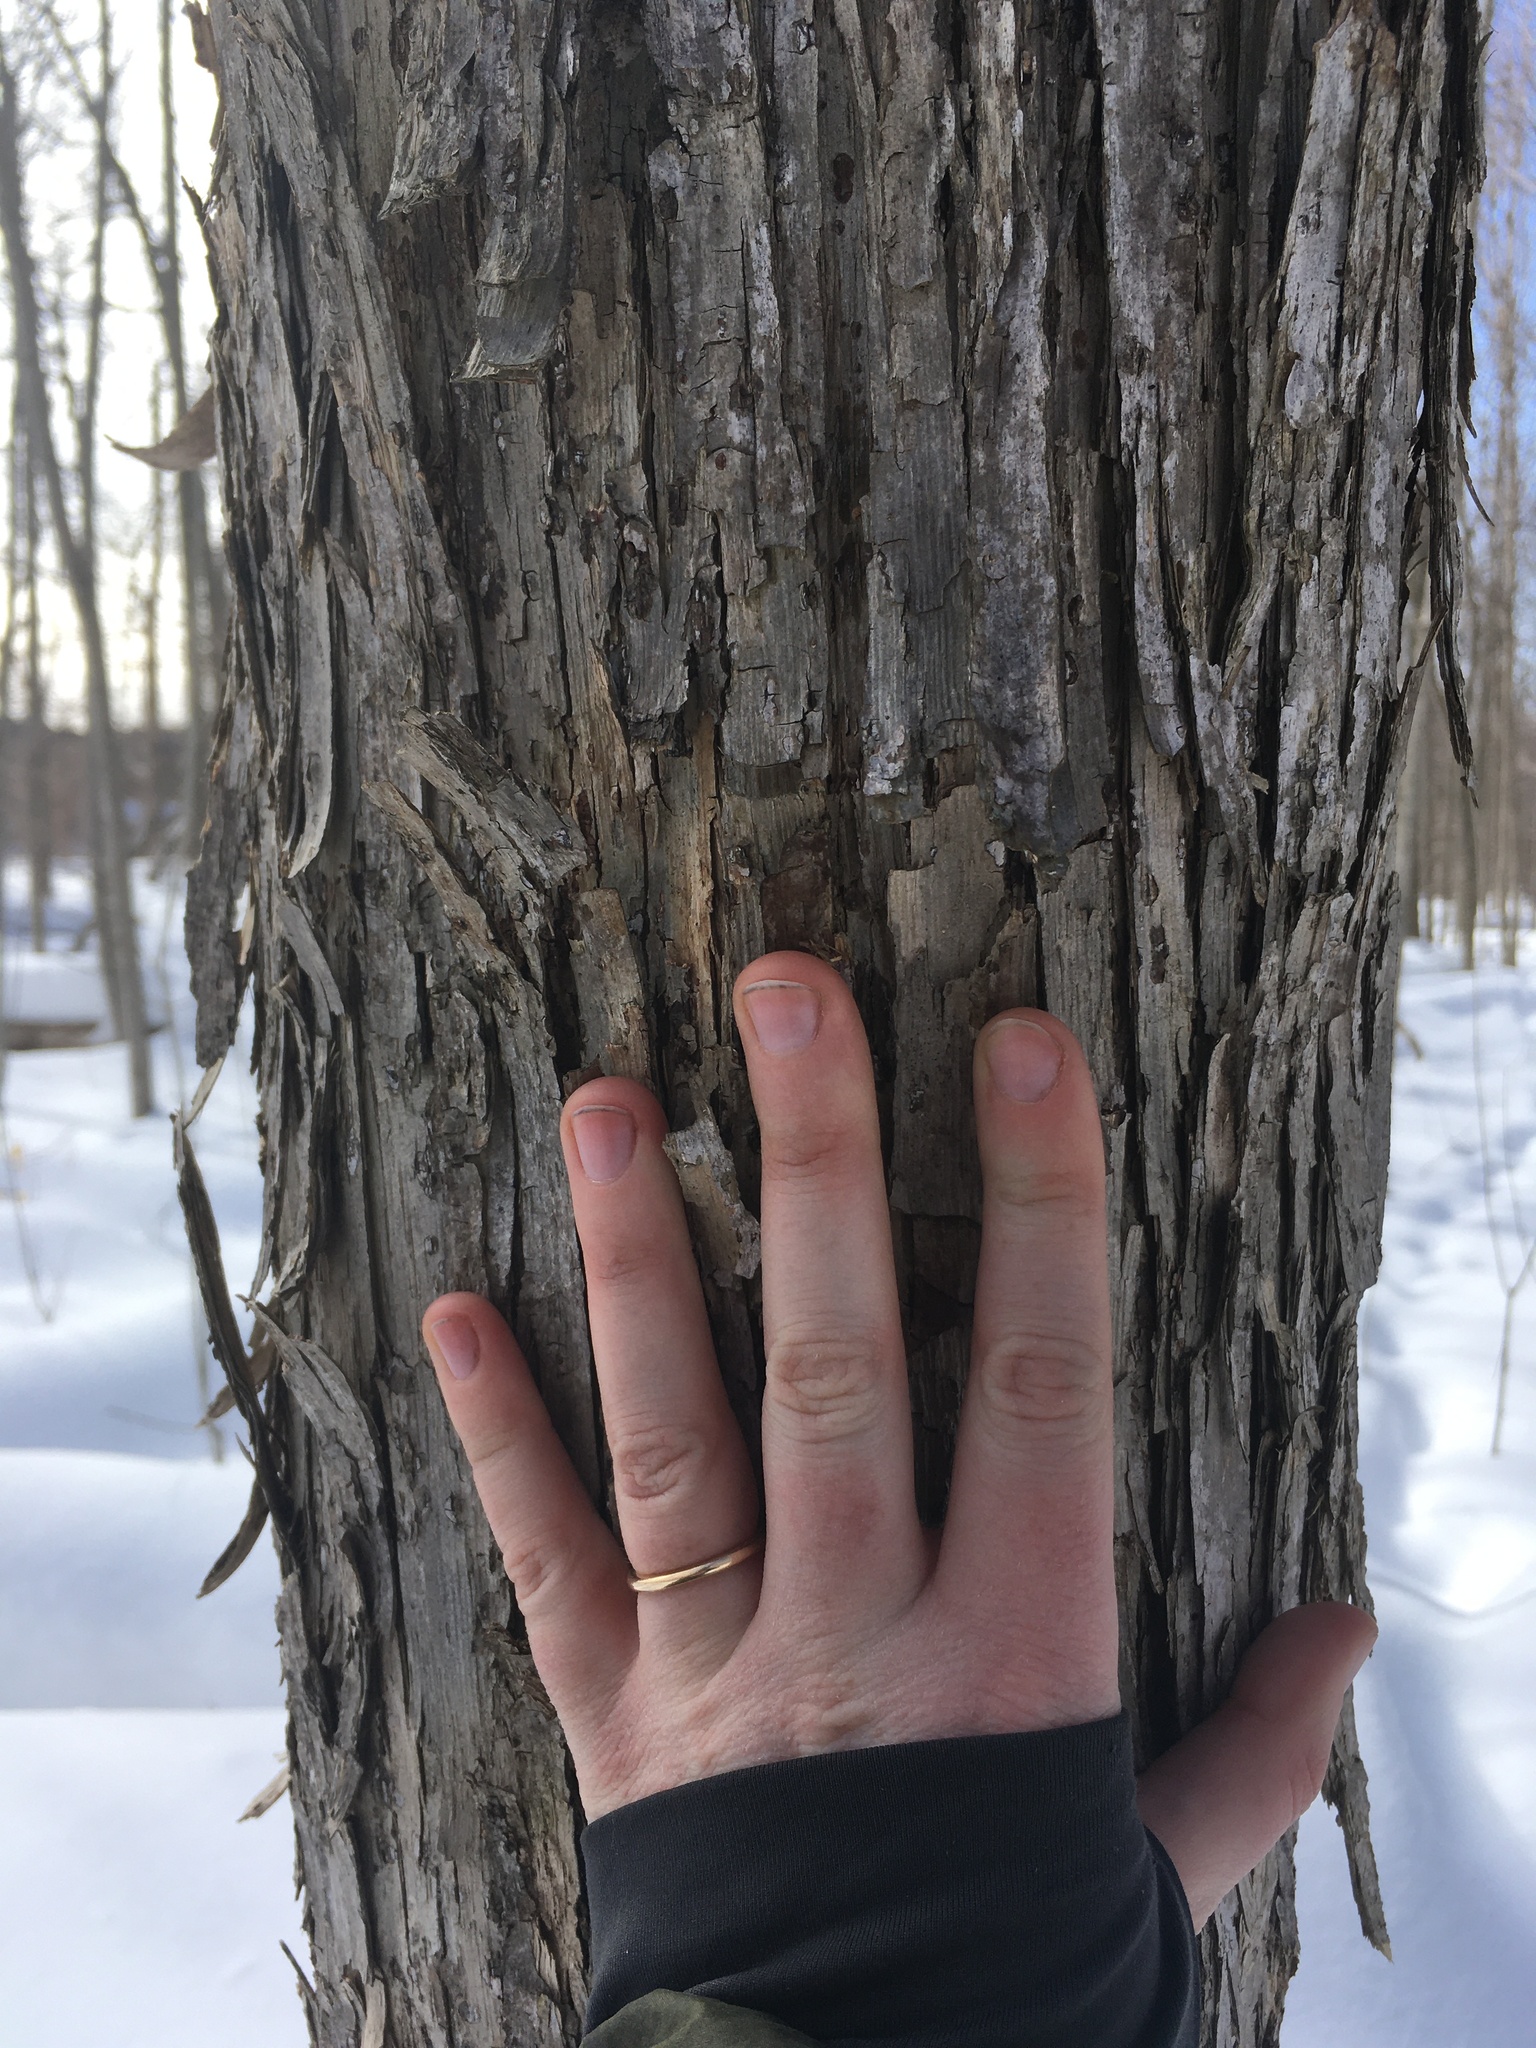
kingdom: Plantae
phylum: Tracheophyta
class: Magnoliopsida
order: Fagales
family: Betulaceae
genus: Ostrya
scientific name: Ostrya virginiana
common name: Ironwood
